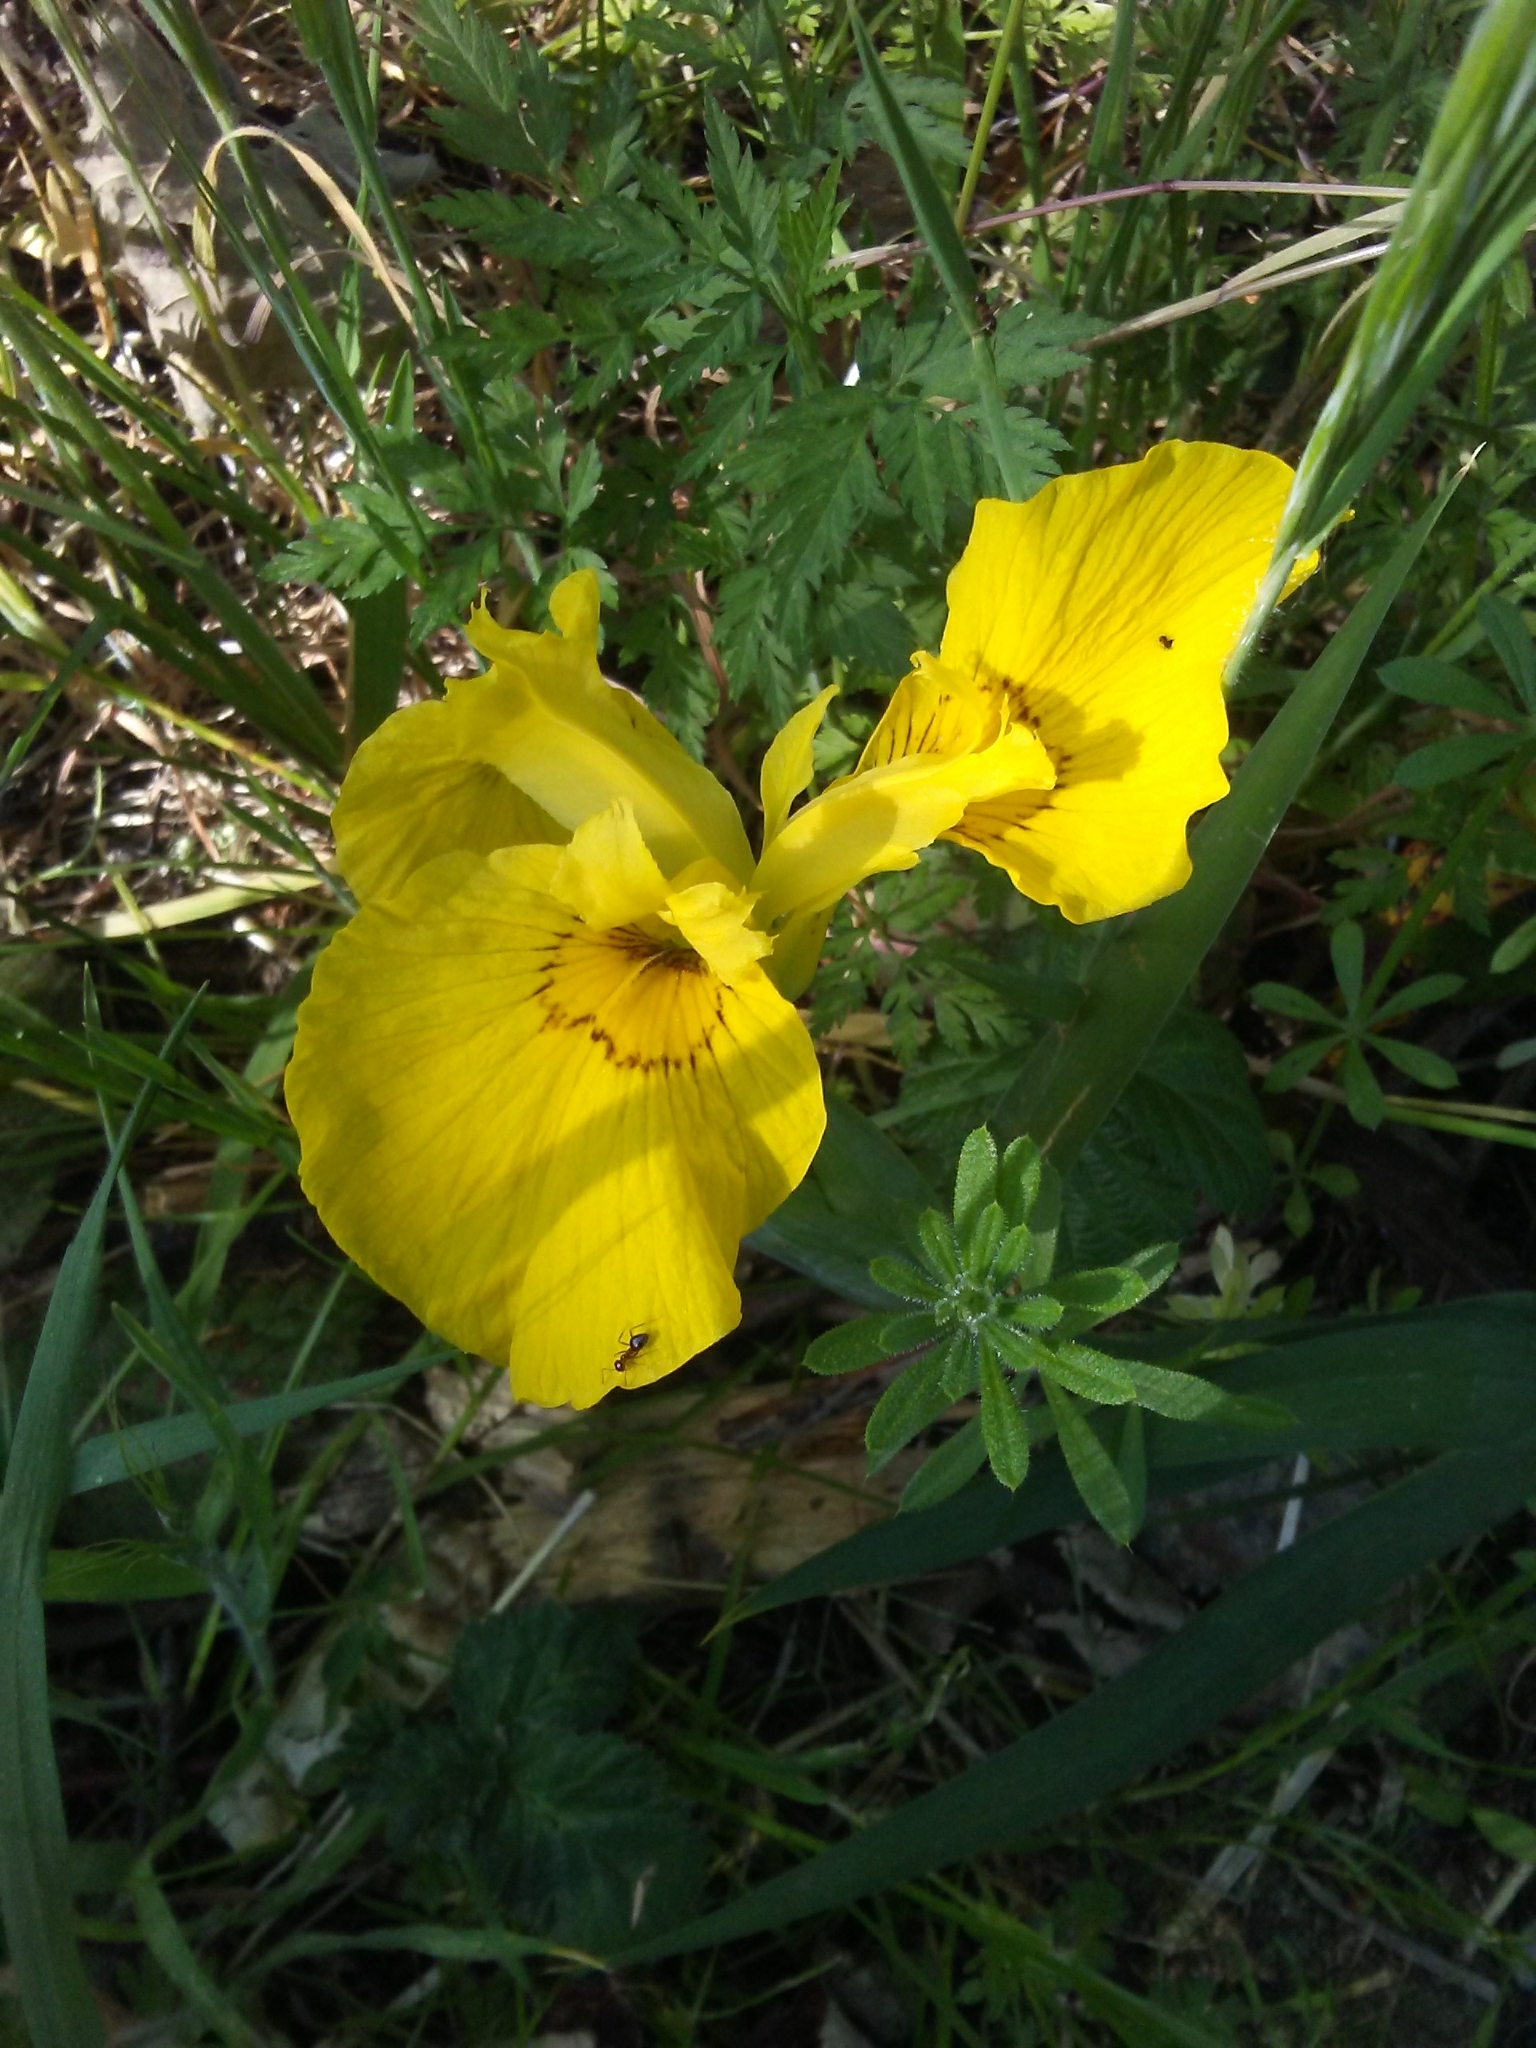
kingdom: Plantae
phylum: Tracheophyta
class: Liliopsida
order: Asparagales
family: Iridaceae
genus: Iris
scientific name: Iris pseudacorus
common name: Yellow flag
